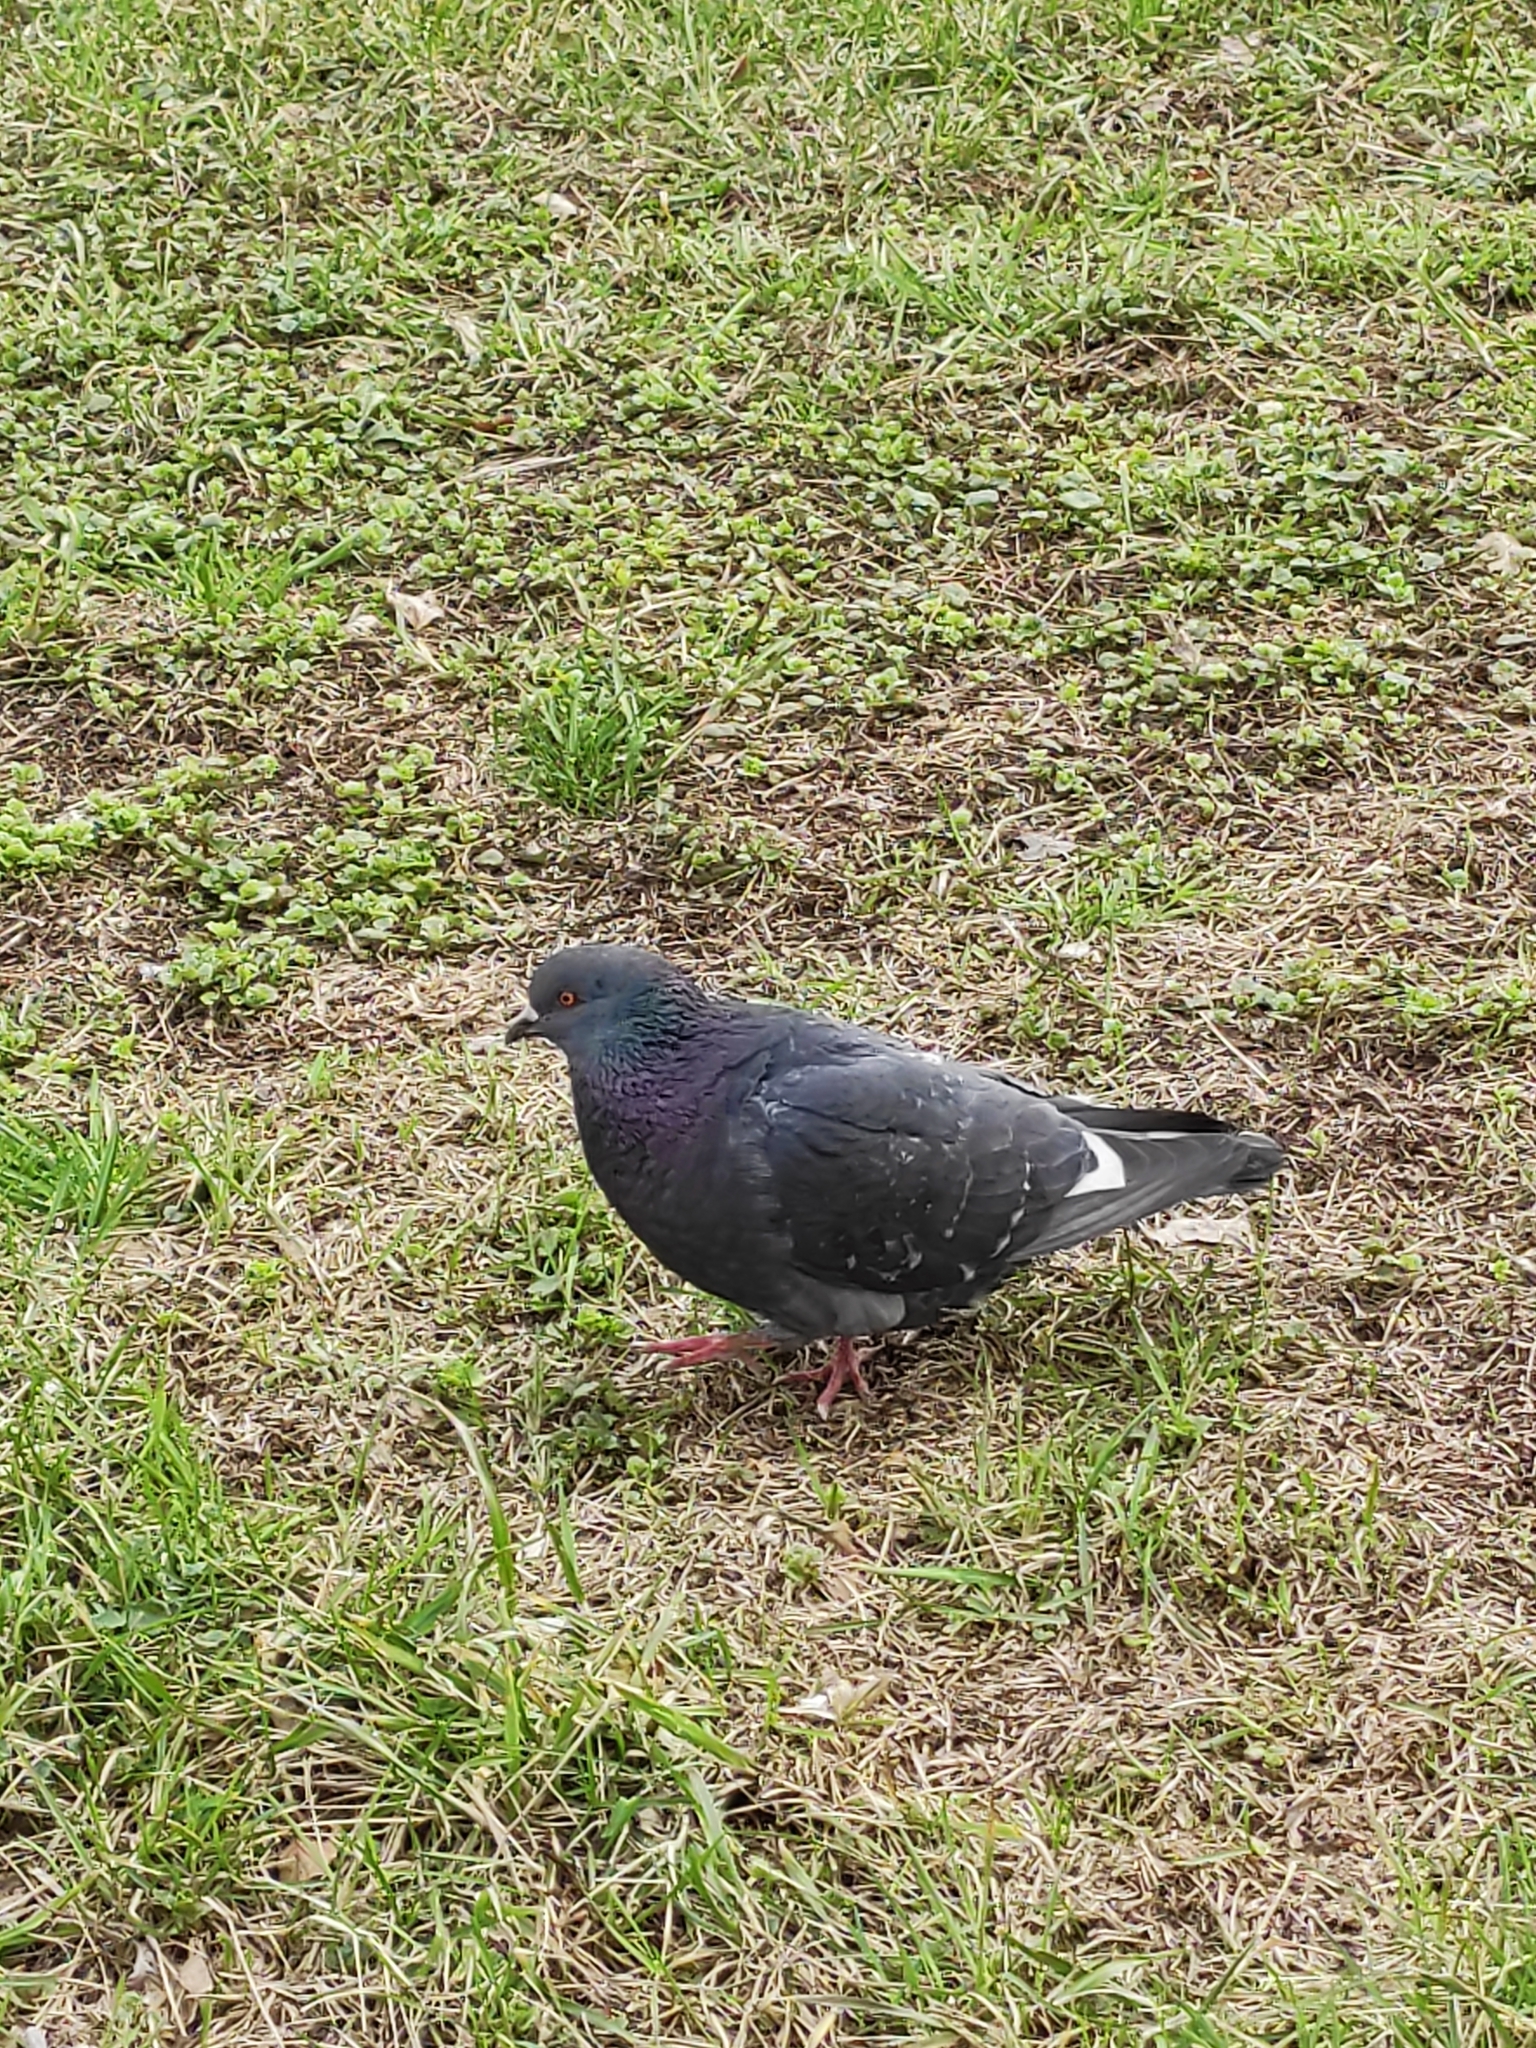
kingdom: Animalia
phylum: Chordata
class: Aves
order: Columbiformes
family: Columbidae
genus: Columba
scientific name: Columba livia
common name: Rock pigeon
